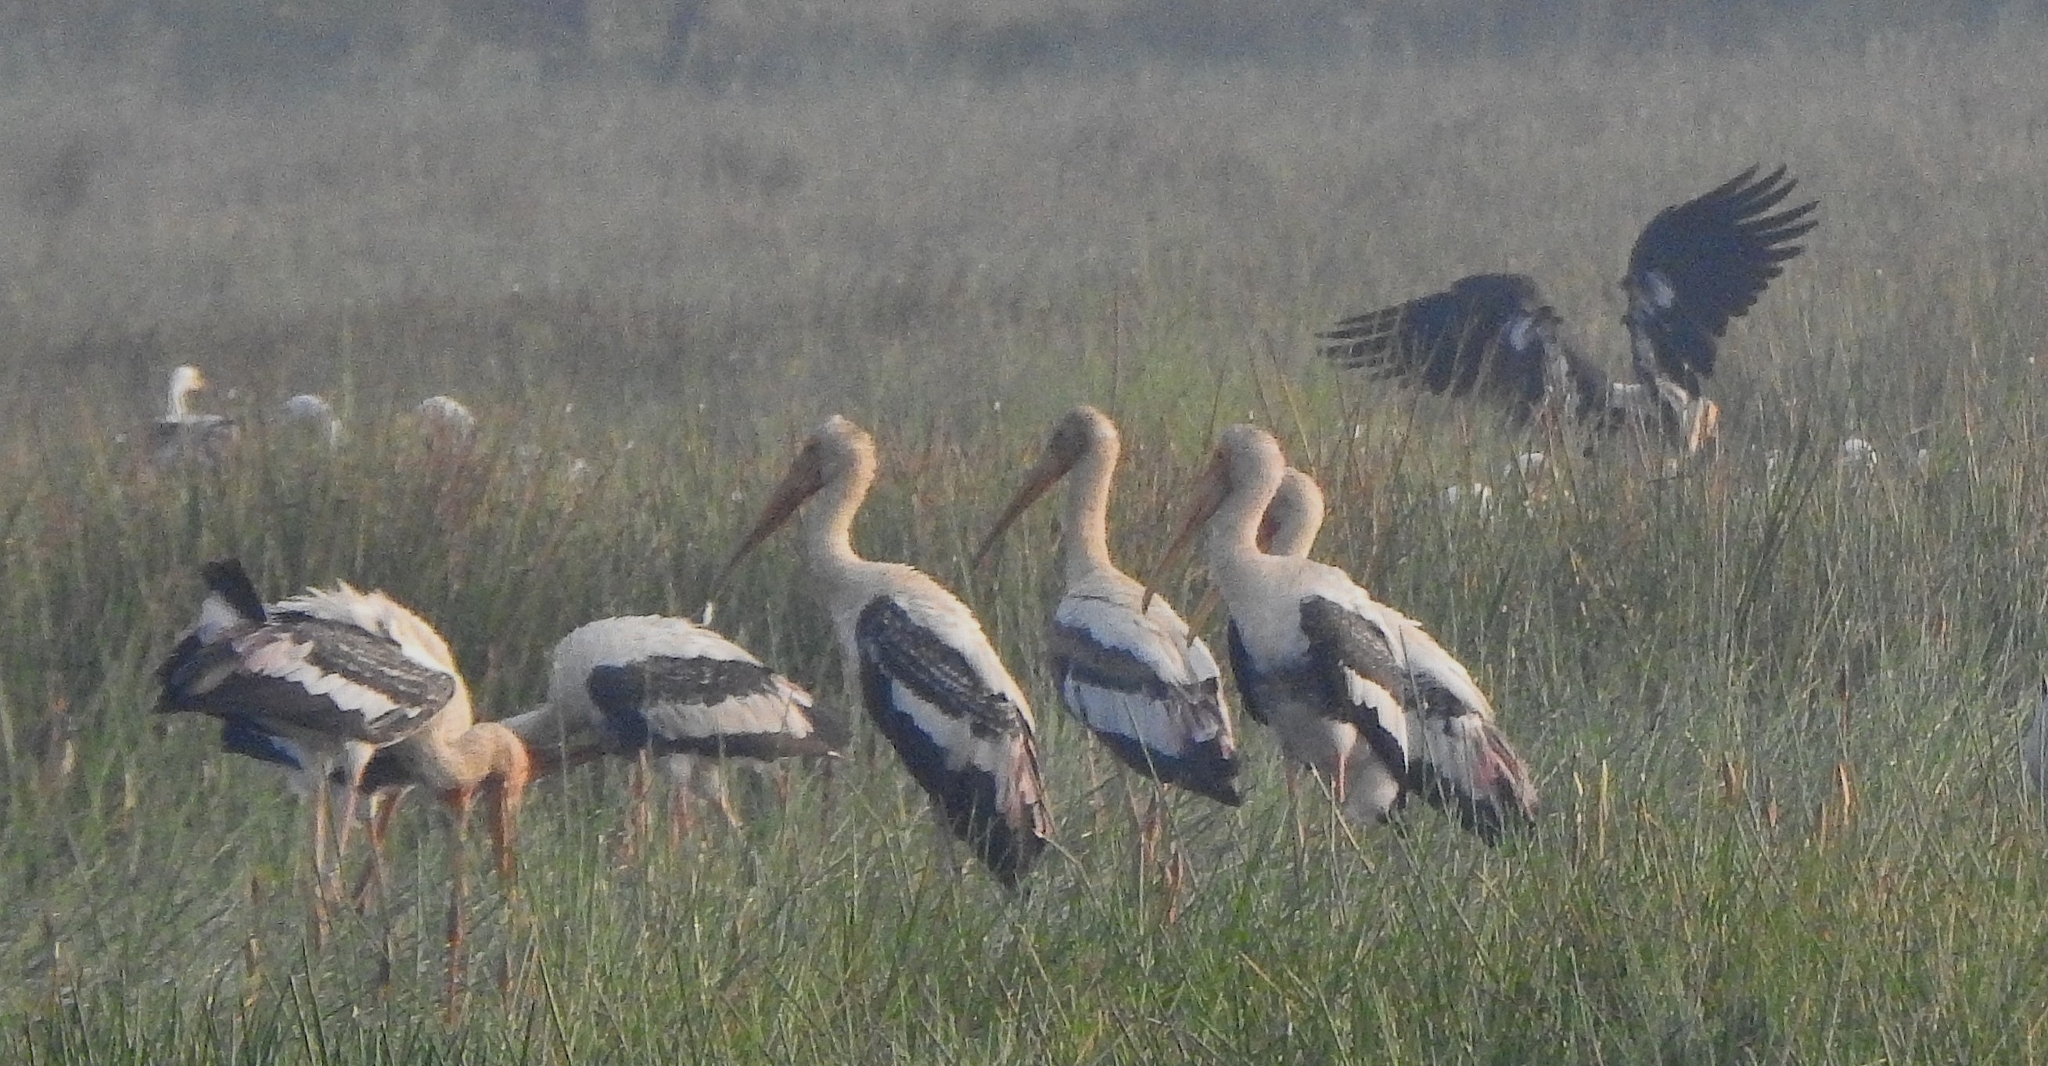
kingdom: Animalia
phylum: Chordata
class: Aves
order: Ciconiiformes
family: Ciconiidae
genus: Mycteria
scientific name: Mycteria leucocephala
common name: Painted stork
